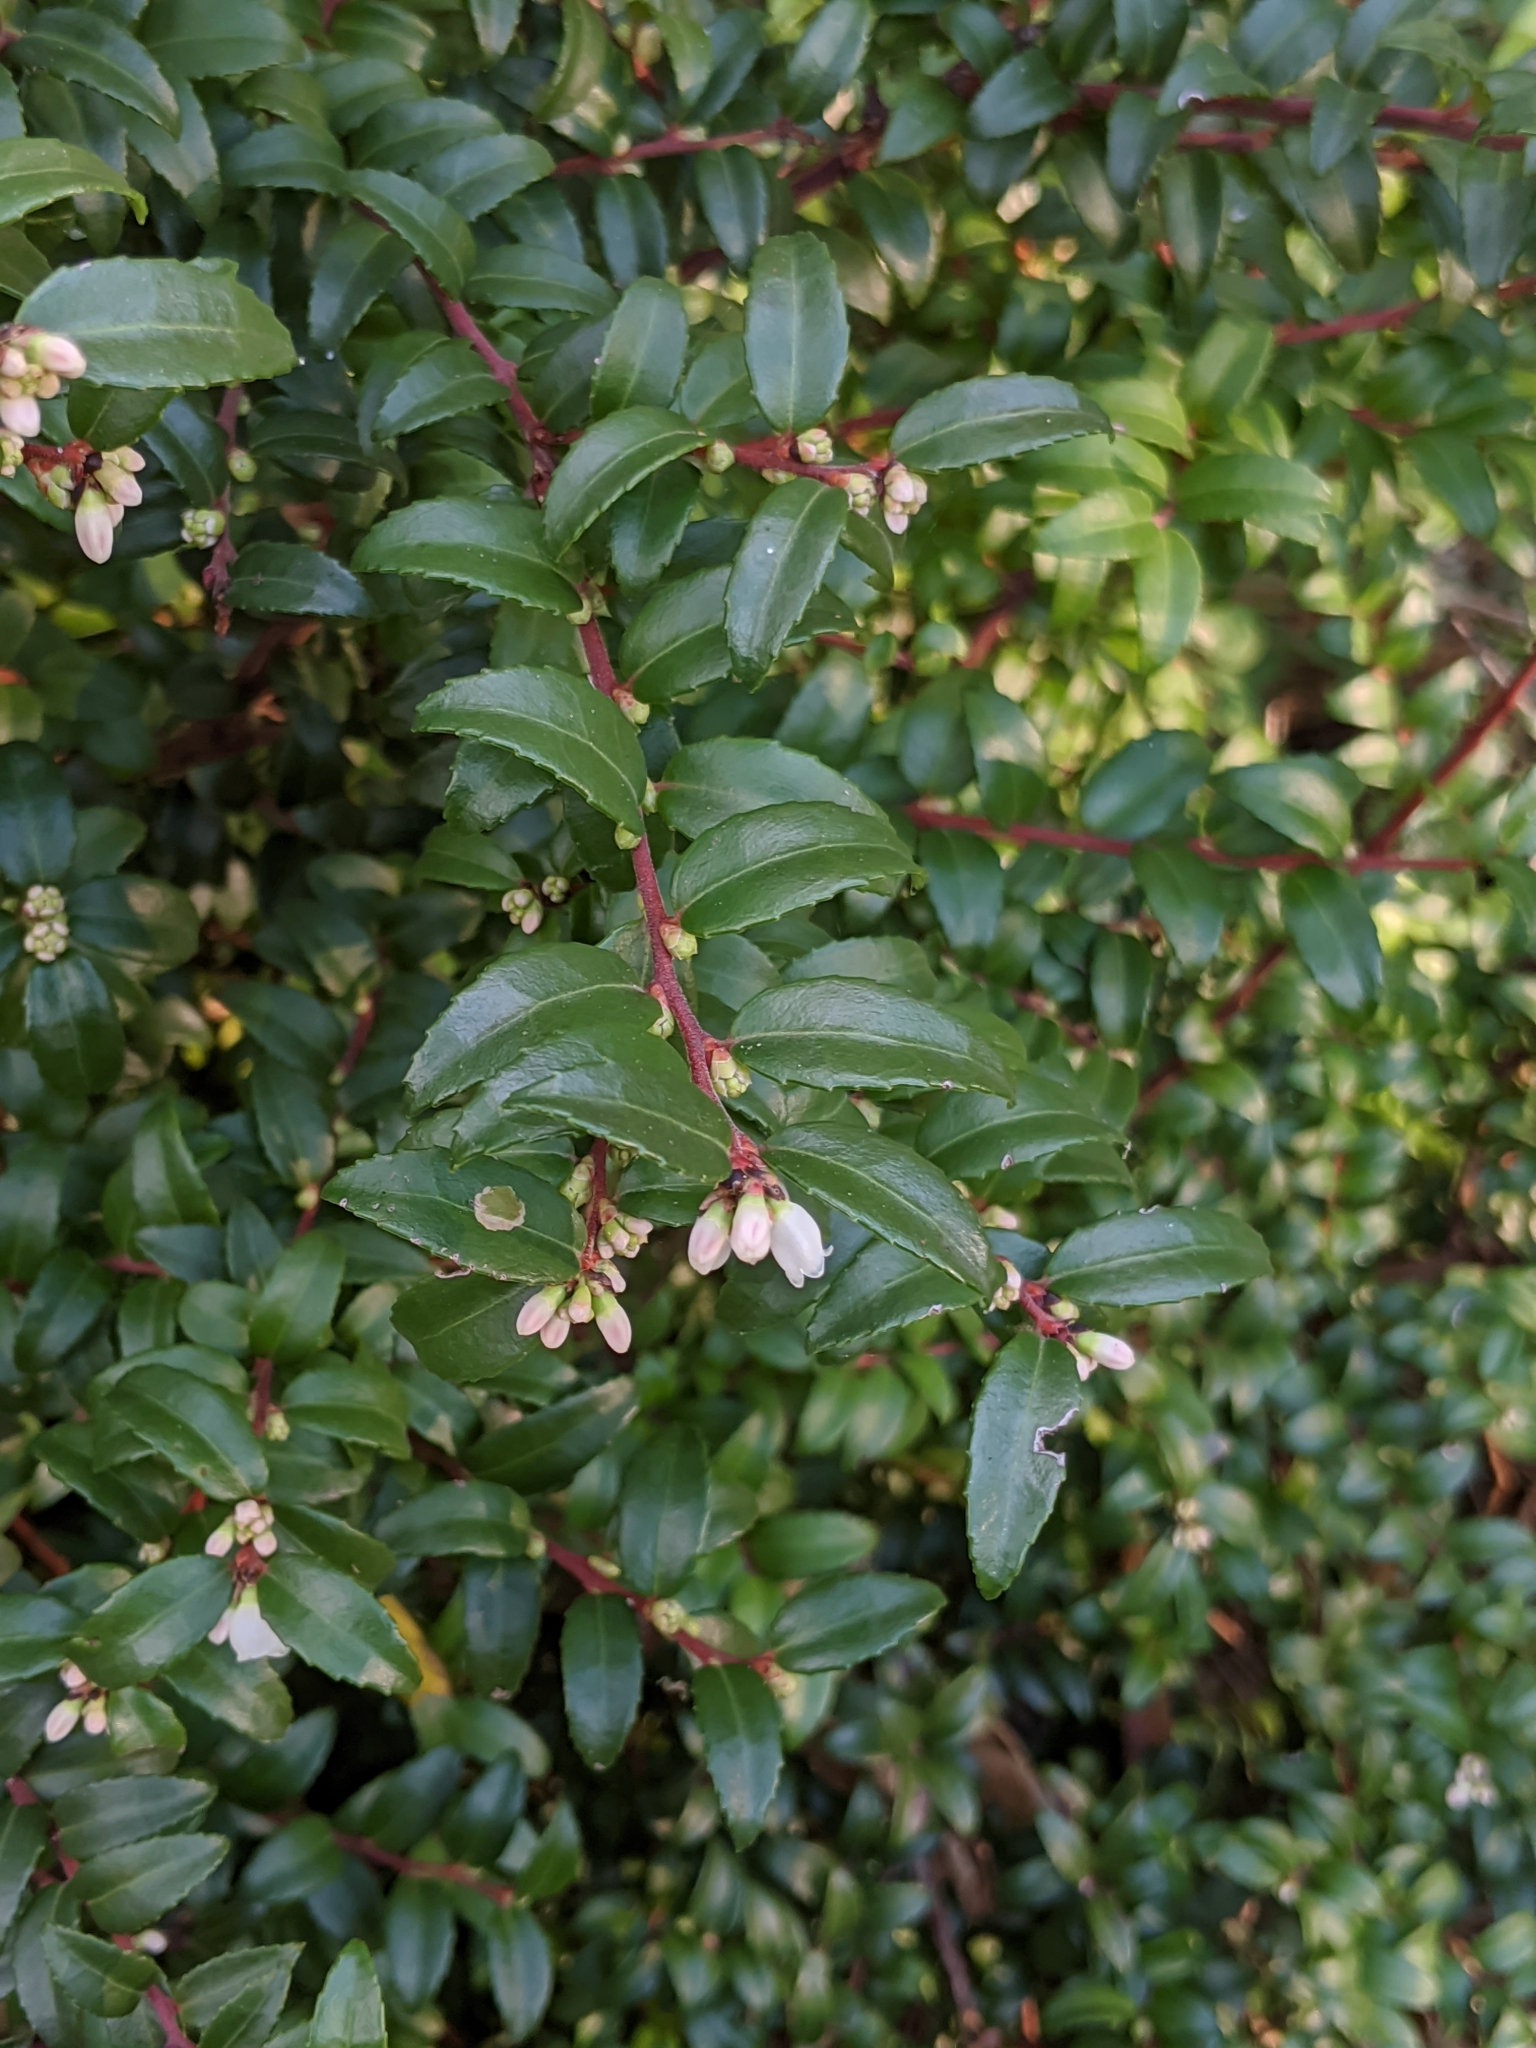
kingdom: Plantae
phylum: Tracheophyta
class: Magnoliopsida
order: Ericales
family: Ericaceae
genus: Vaccinium
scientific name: Vaccinium ovatum
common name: California-huckleberry
